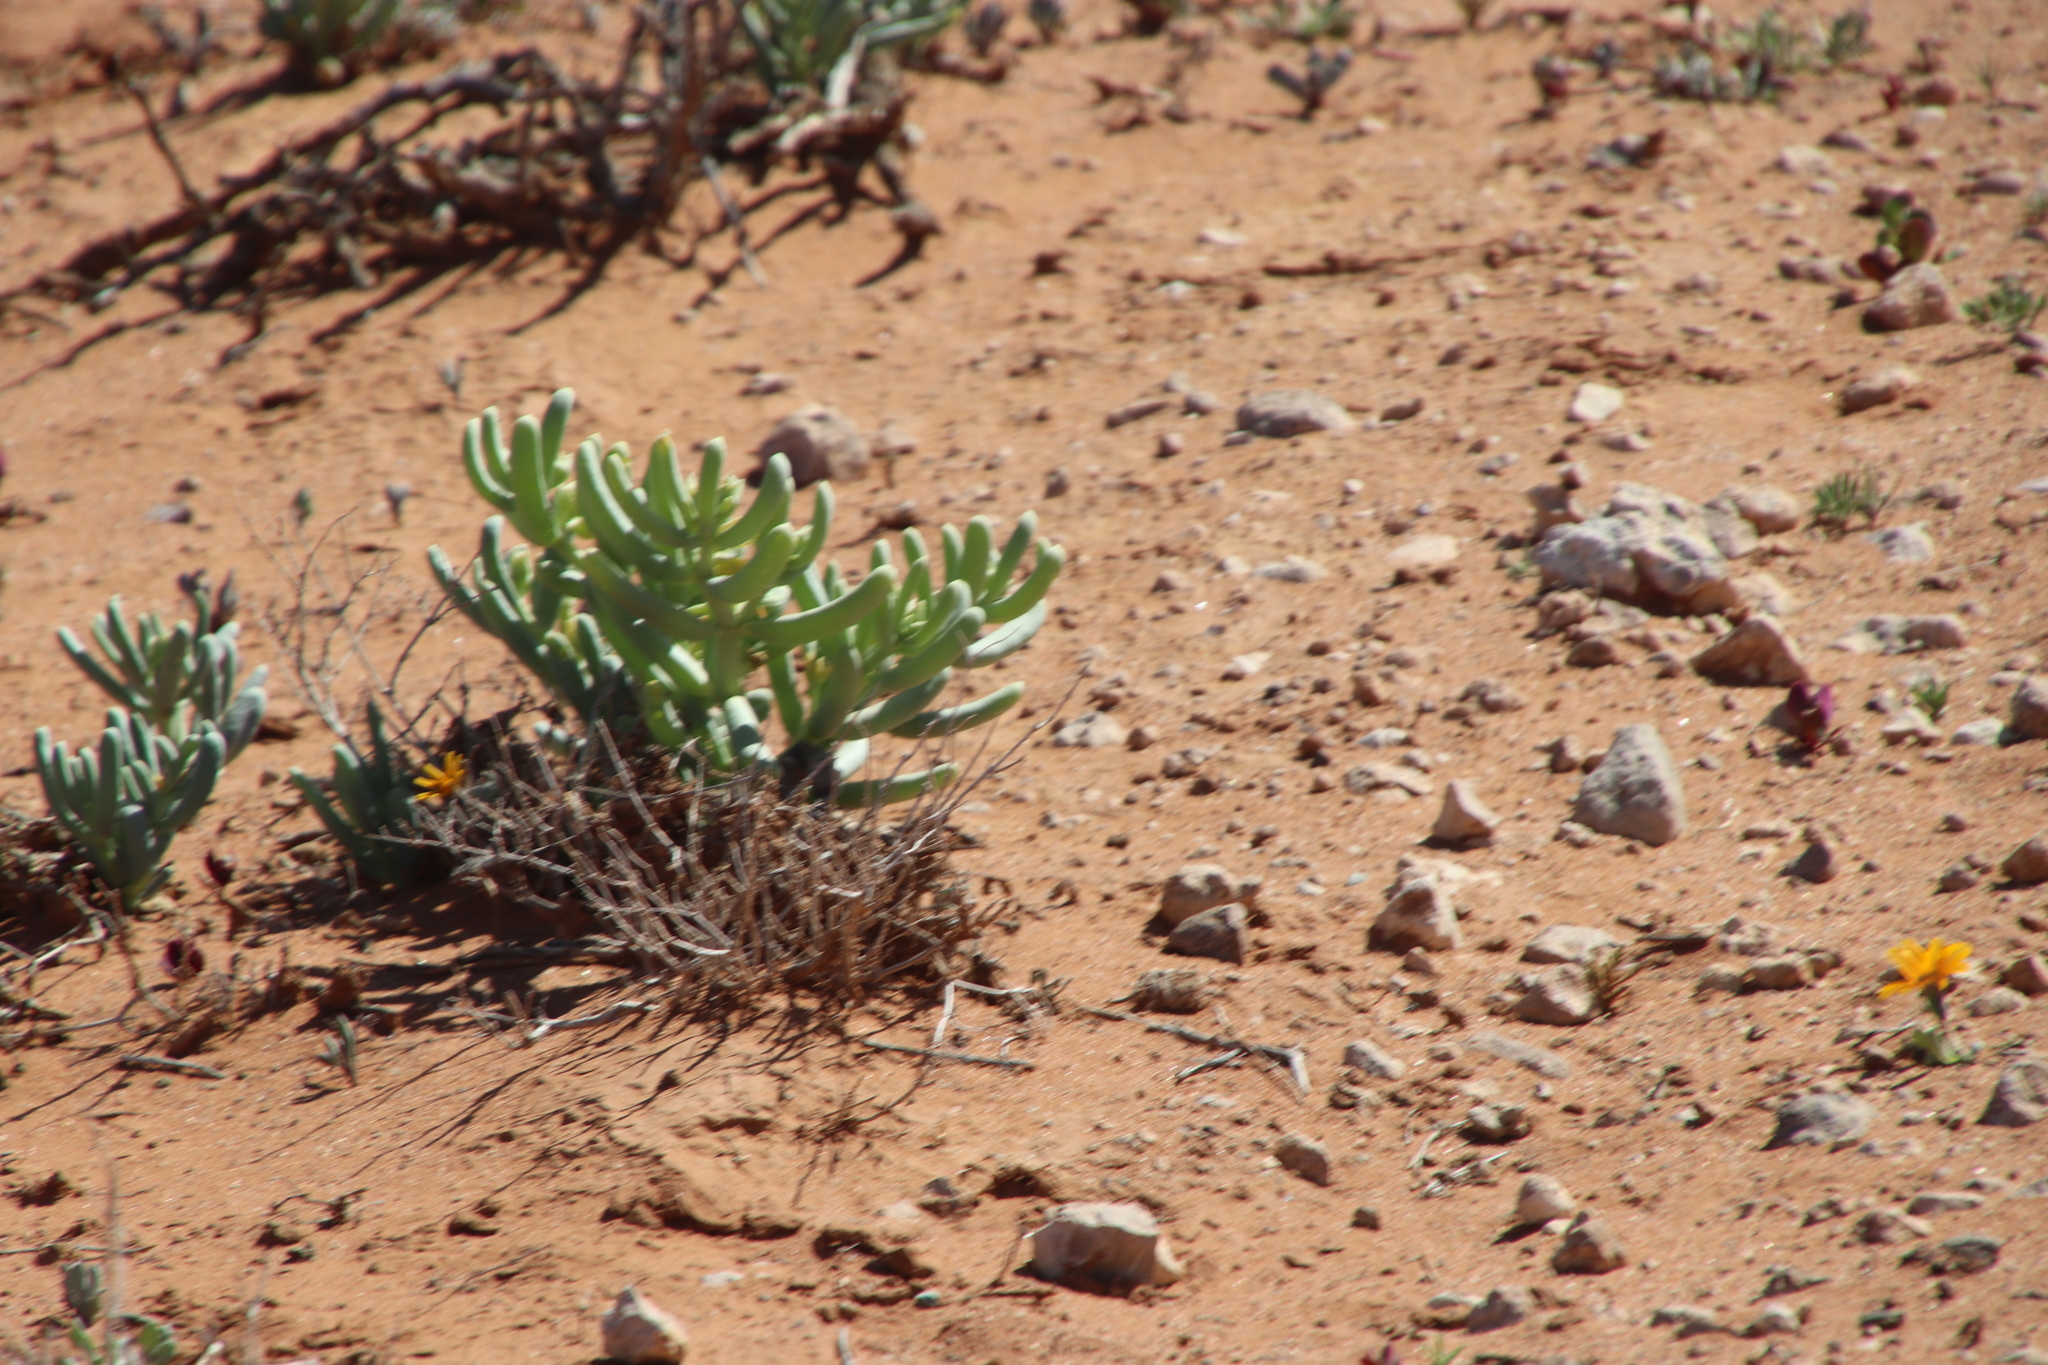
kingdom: Plantae
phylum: Tracheophyta
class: Magnoliopsida
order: Zygophyllales
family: Zygophyllaceae
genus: Augea
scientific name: Augea capensis
